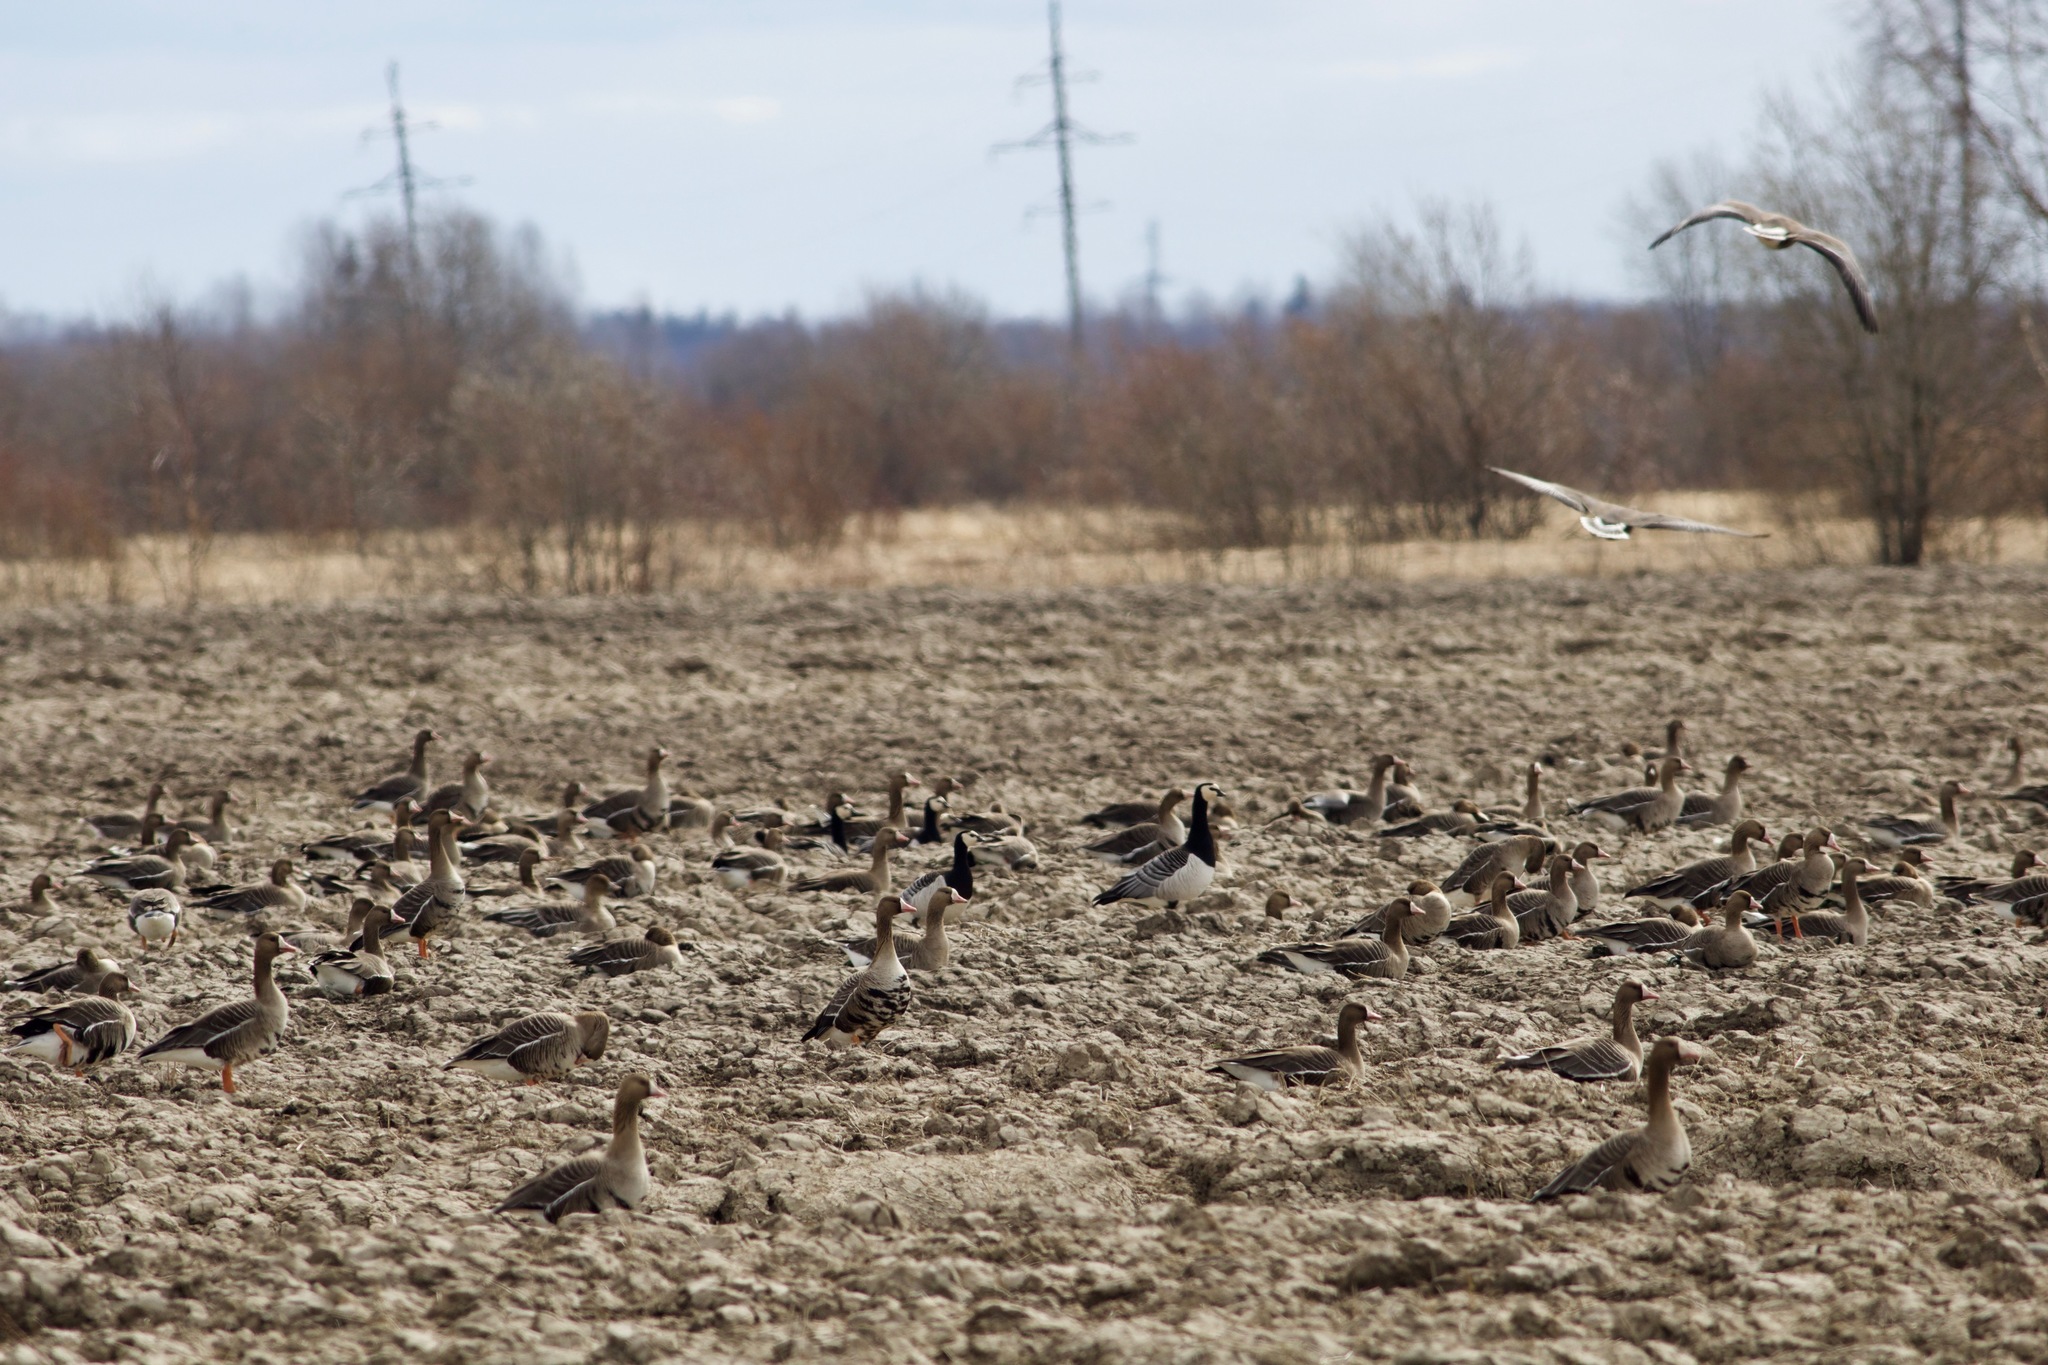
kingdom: Animalia
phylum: Chordata
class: Aves
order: Anseriformes
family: Anatidae
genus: Branta
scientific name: Branta leucopsis
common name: Barnacle goose
